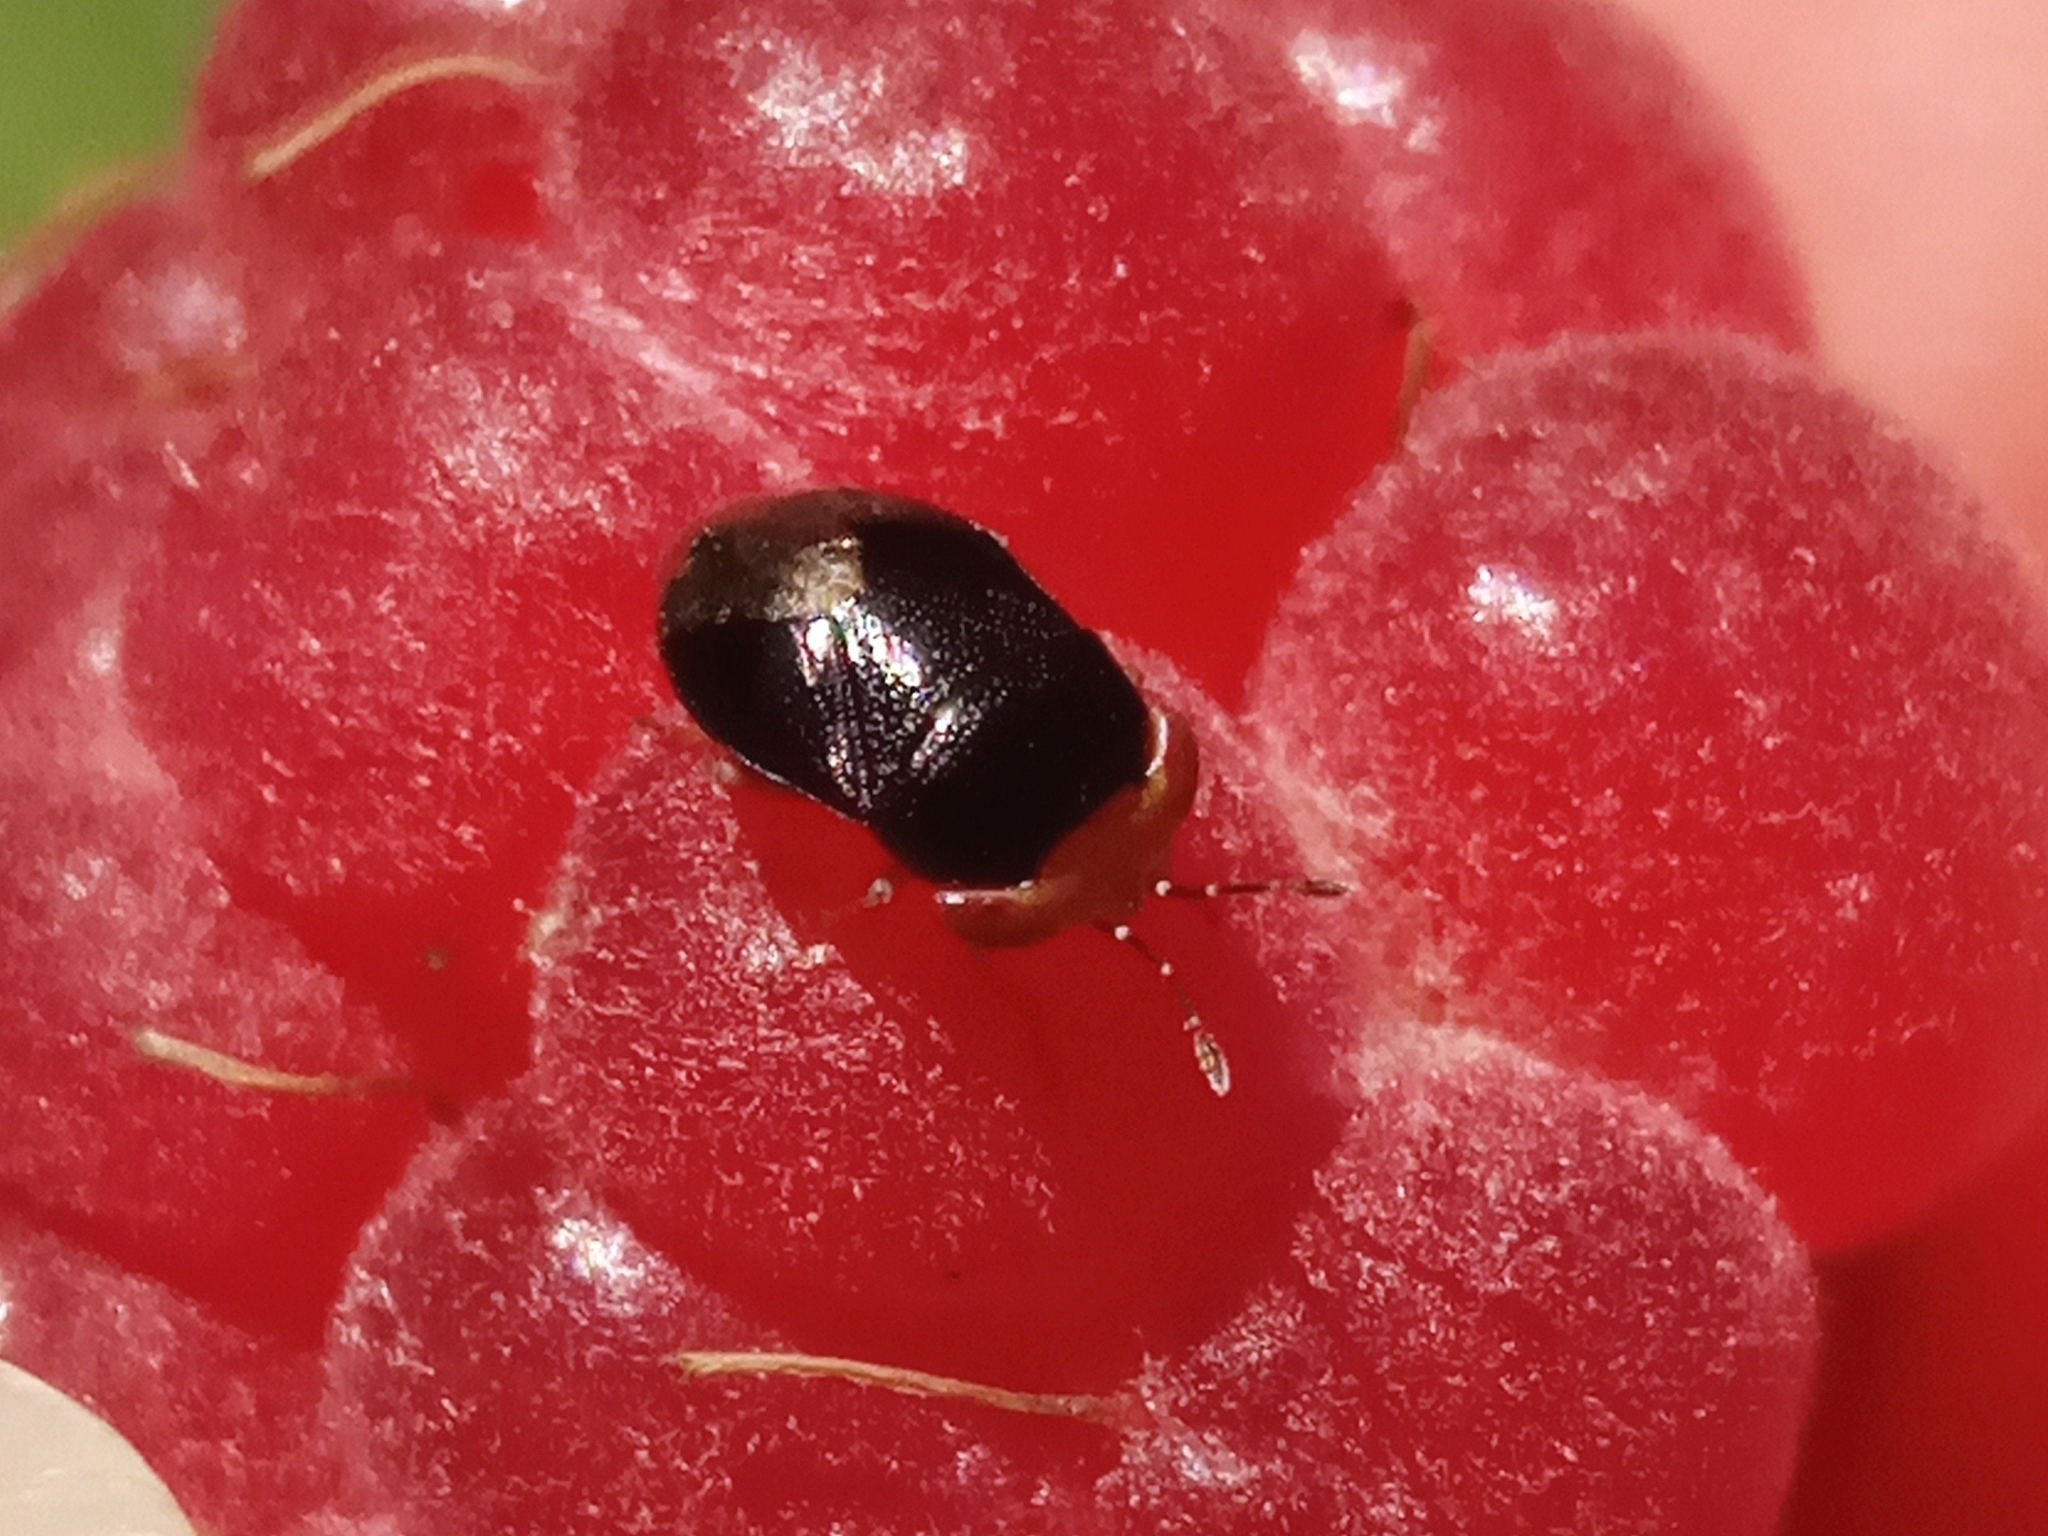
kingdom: Animalia
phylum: Arthropoda
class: Insecta
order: Hemiptera
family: Geocoridae
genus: Geocoris
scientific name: Geocoris erythrocephala
